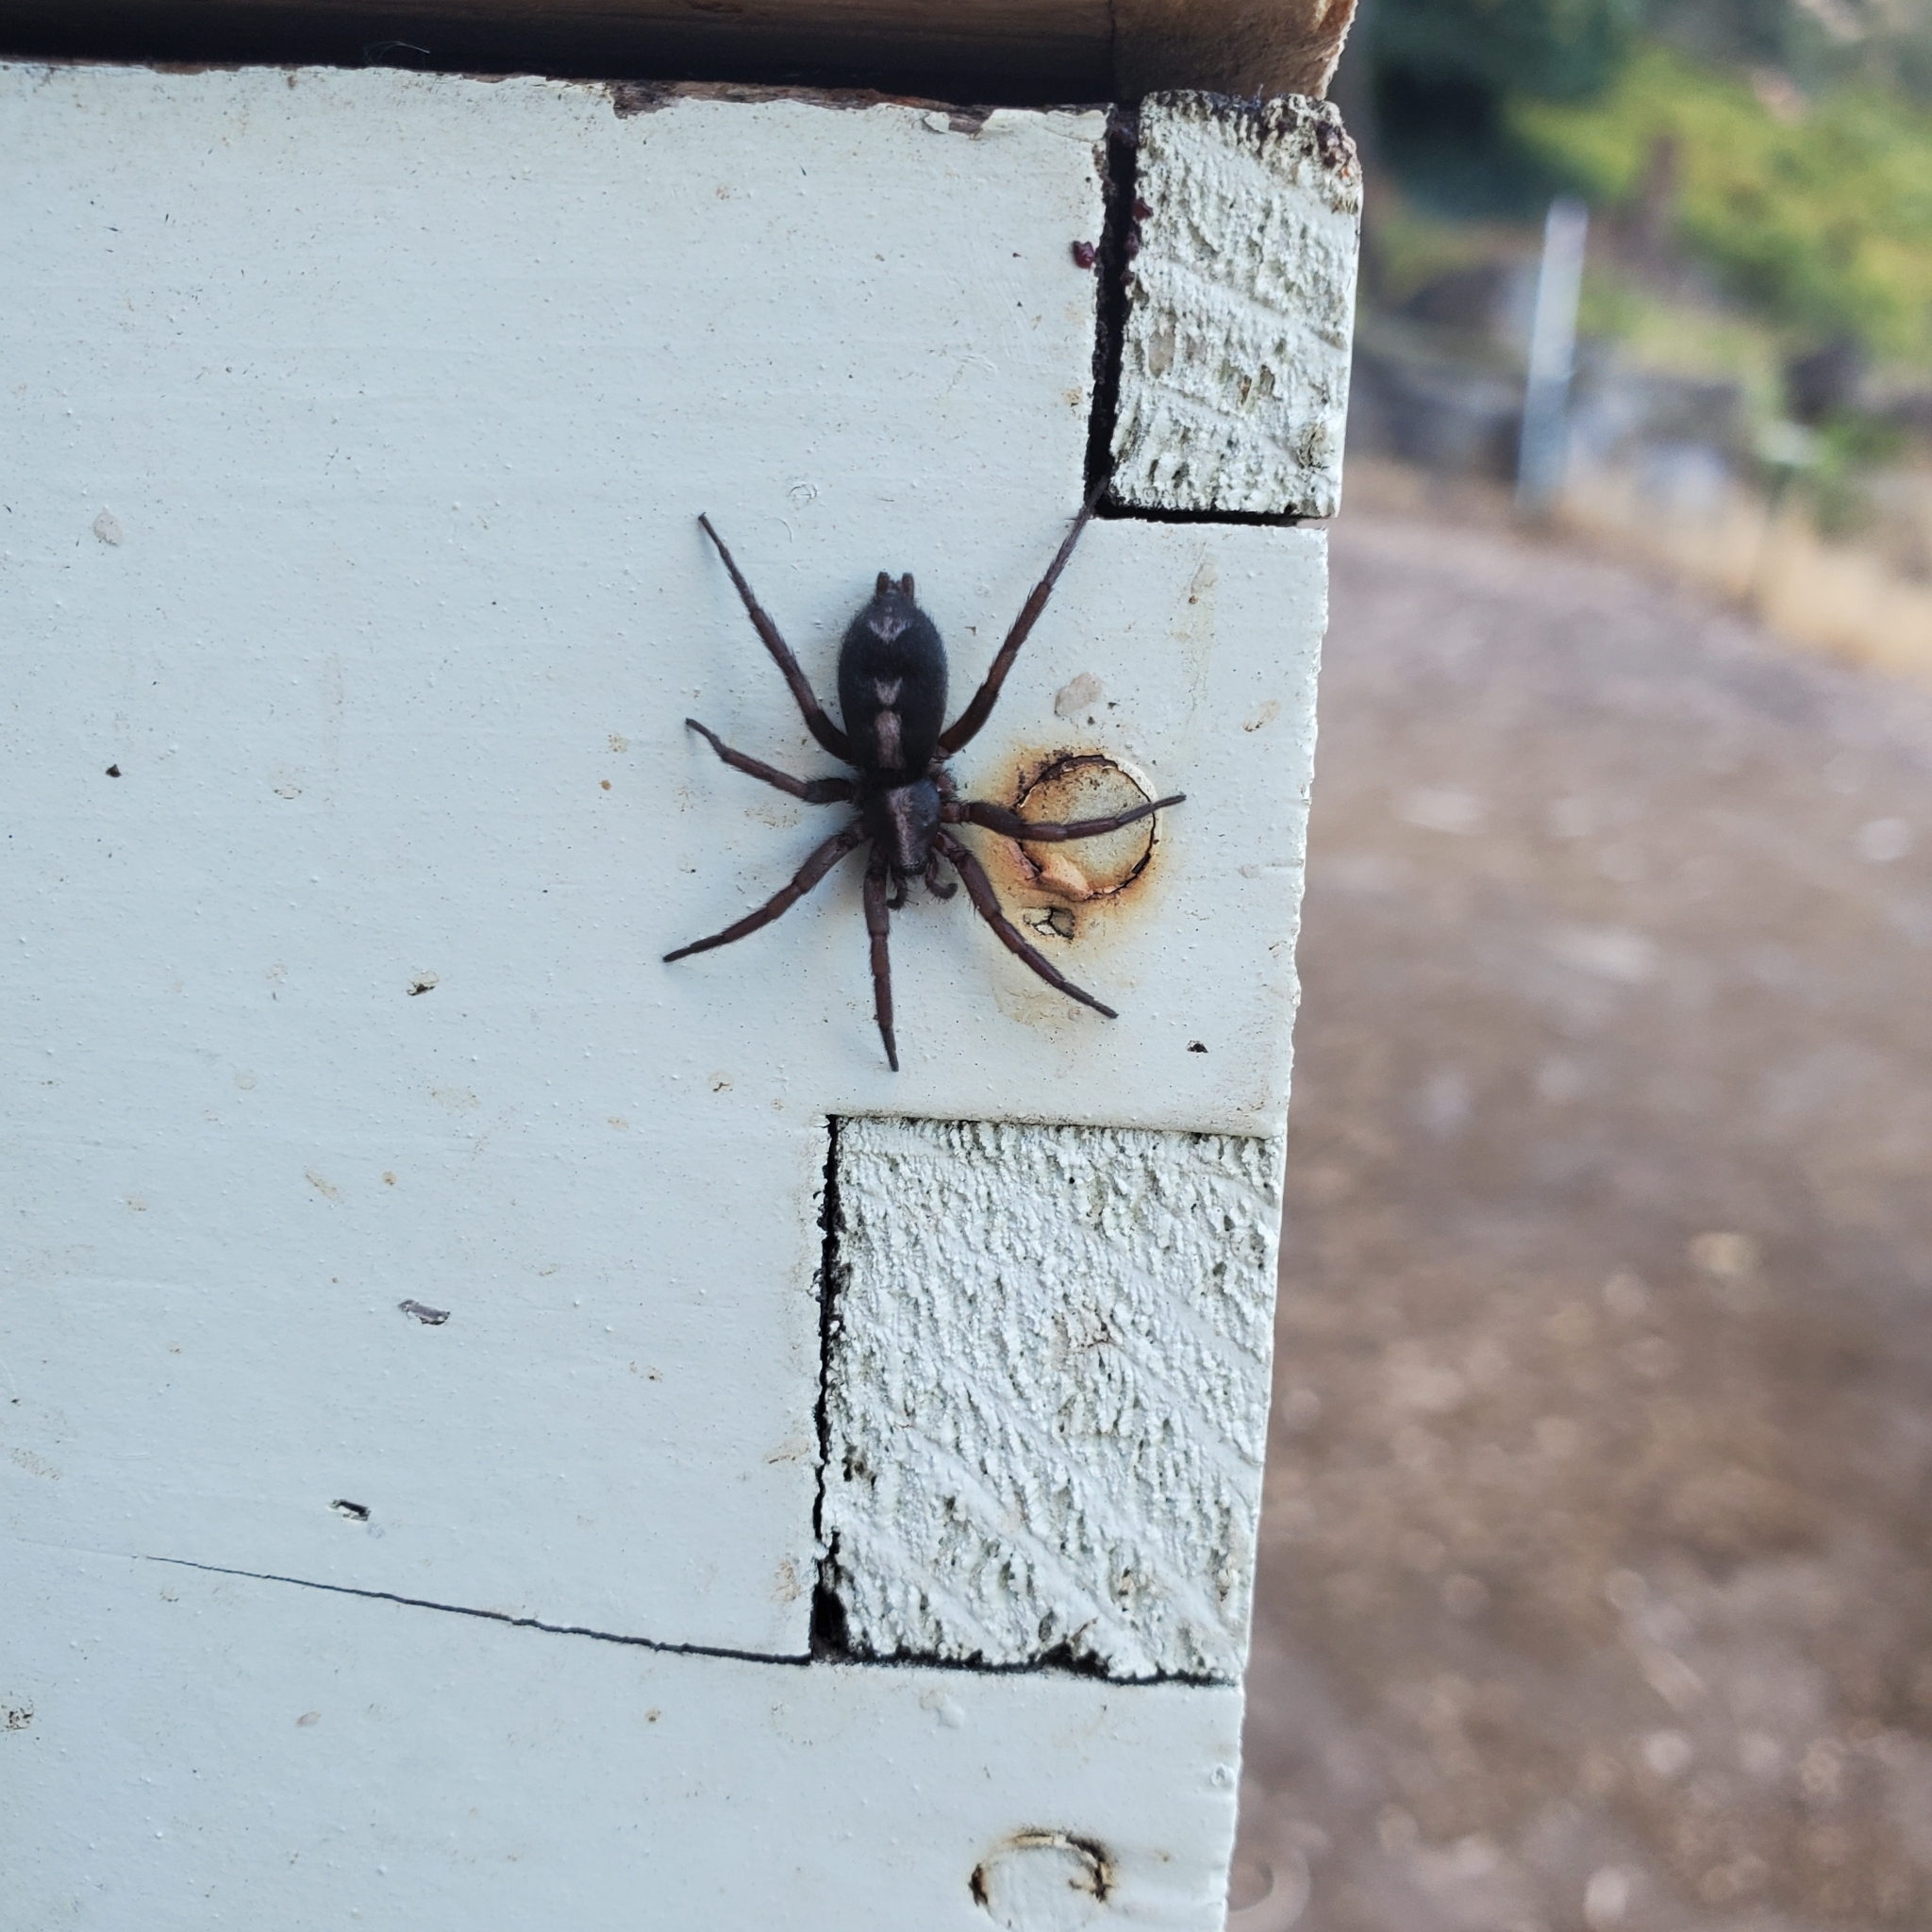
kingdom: Animalia
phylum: Arthropoda
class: Arachnida
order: Araneae
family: Gnaphosidae
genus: Herpyllus
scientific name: Herpyllus propinquus
